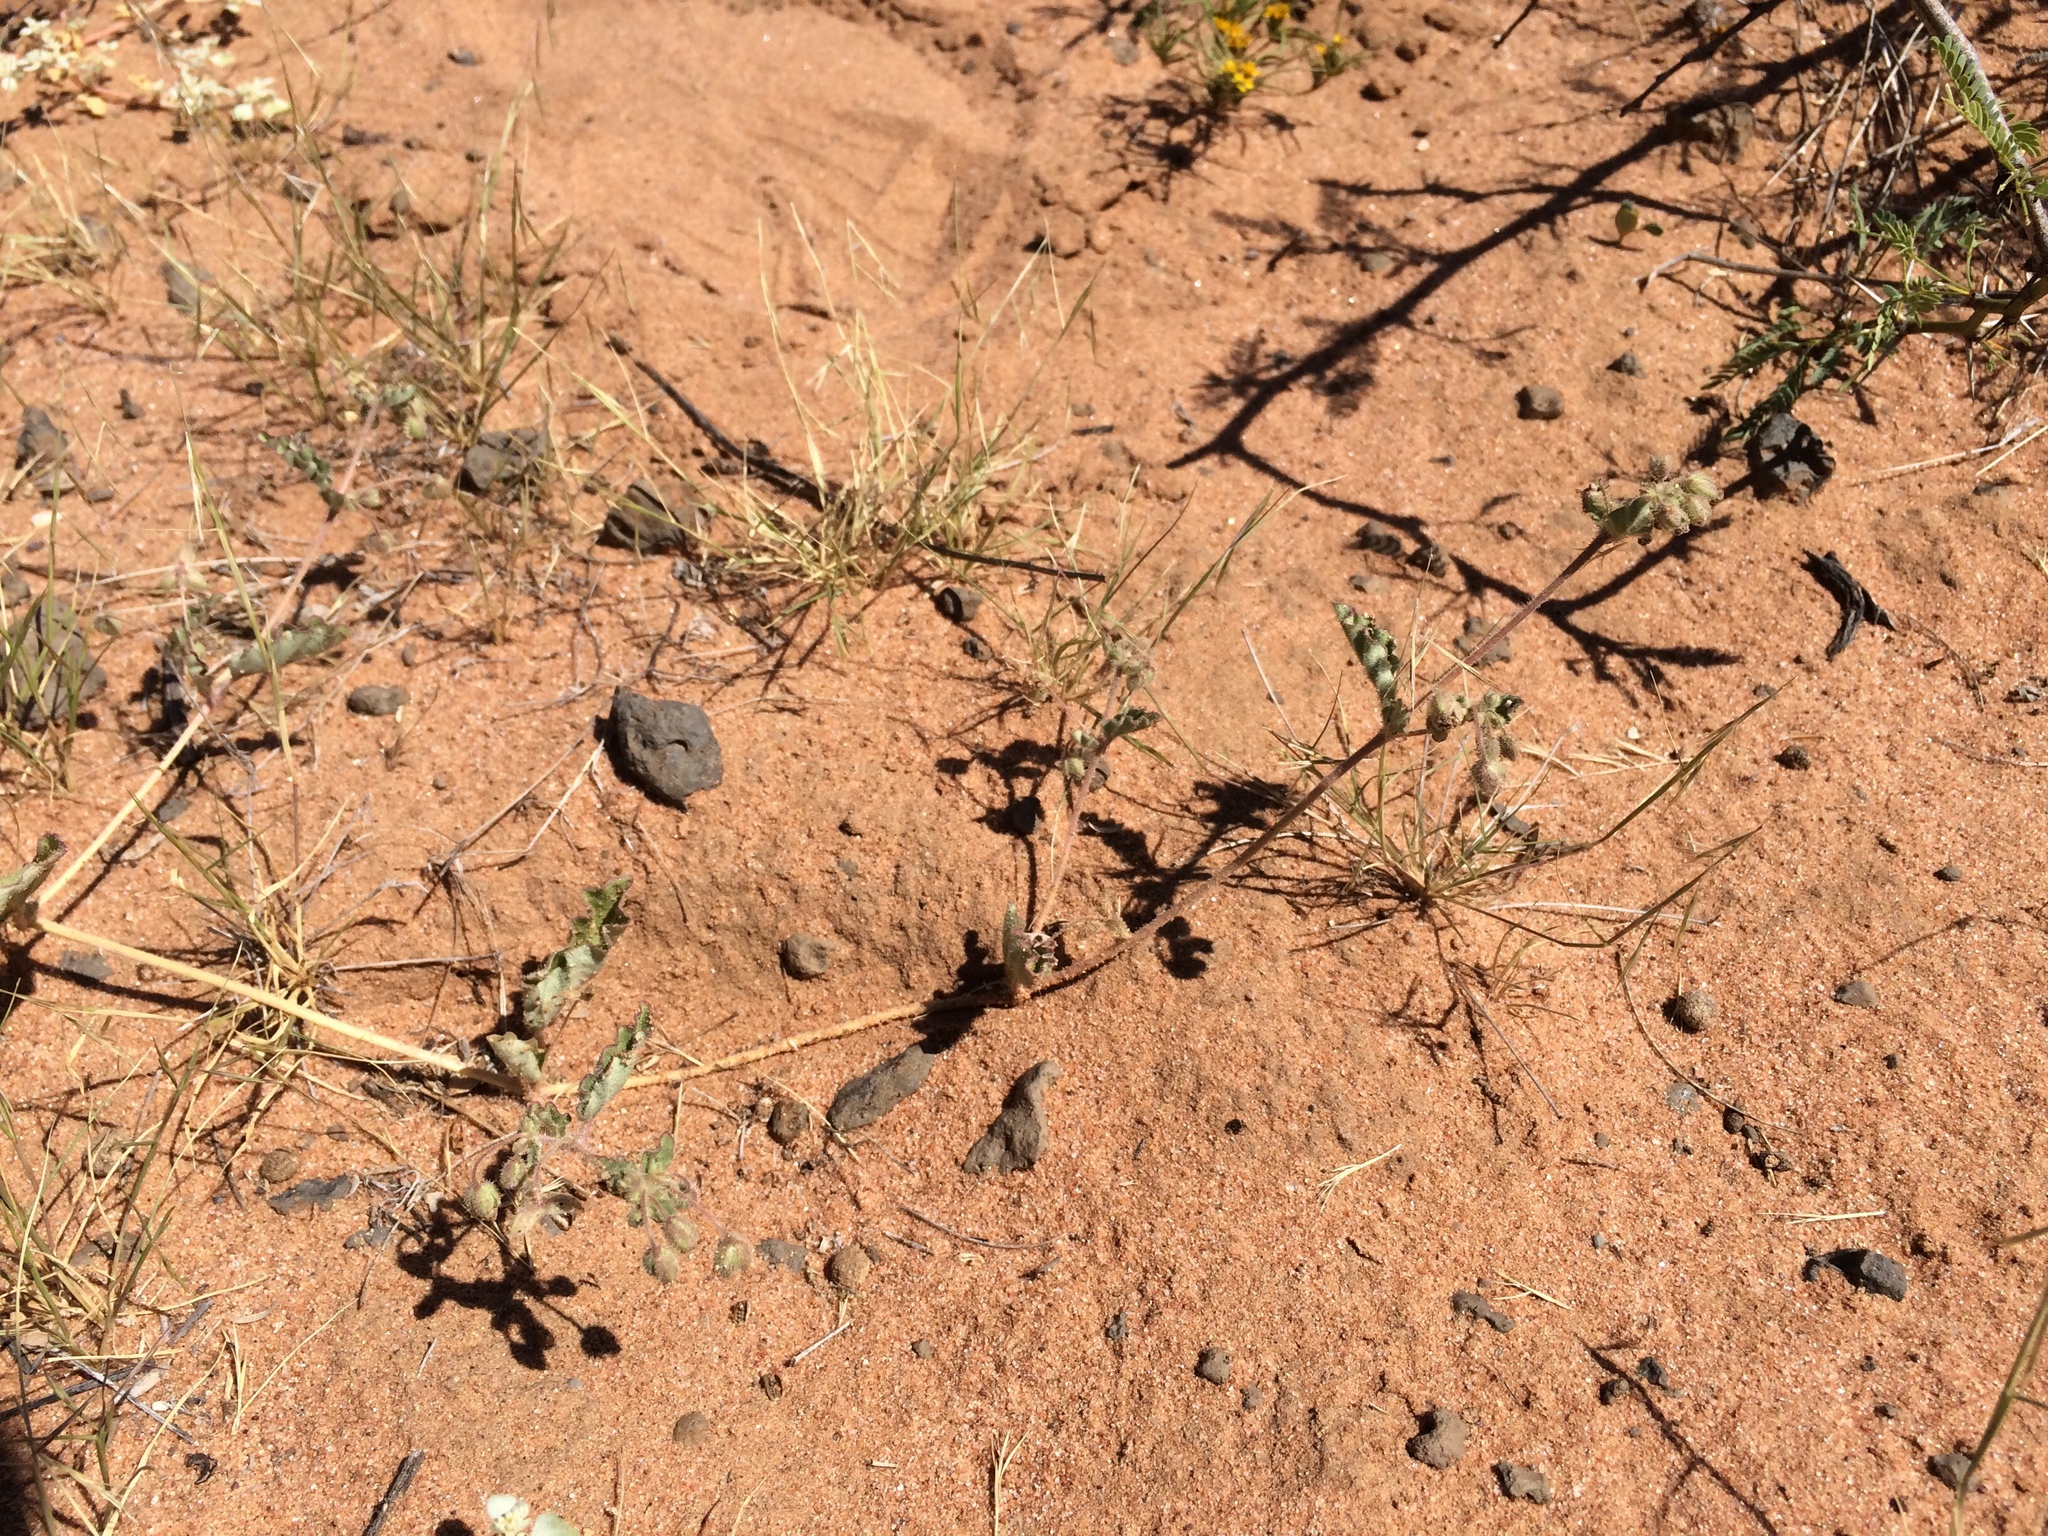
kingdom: Plantae
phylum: Tracheophyta
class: Magnoliopsida
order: Caryophyllales
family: Nyctaginaceae
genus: Allionia
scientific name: Allionia incarnata
